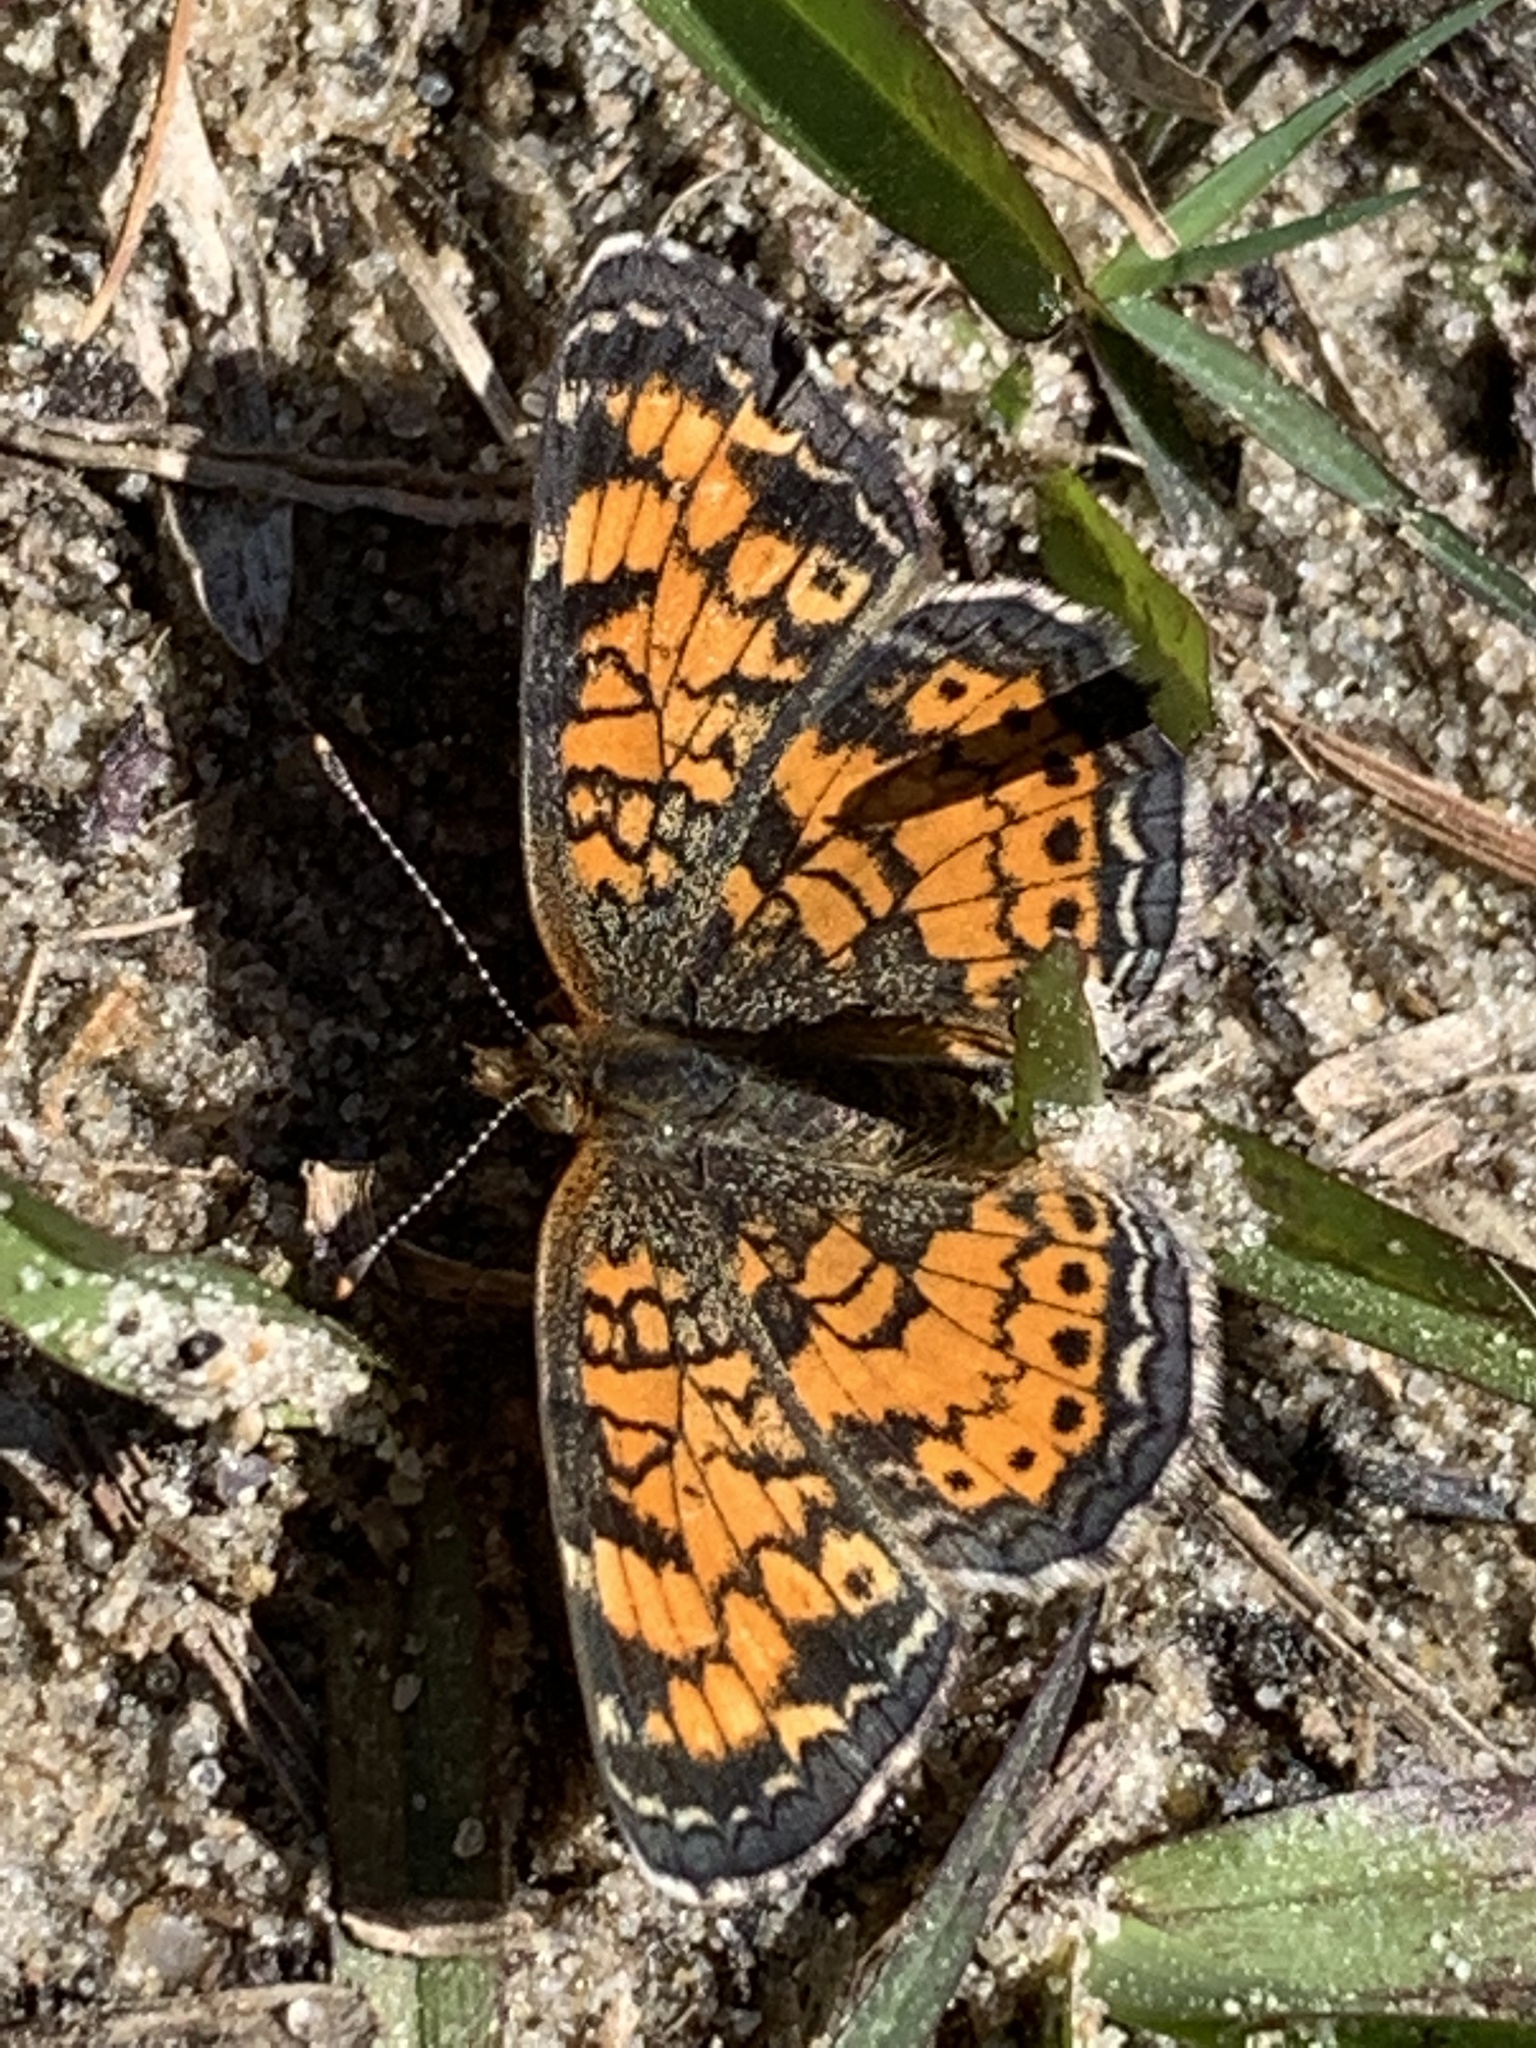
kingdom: Animalia
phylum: Arthropoda
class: Insecta
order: Lepidoptera
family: Nymphalidae
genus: Phyciodes
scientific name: Phyciodes tharos
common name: Pearl crescent
